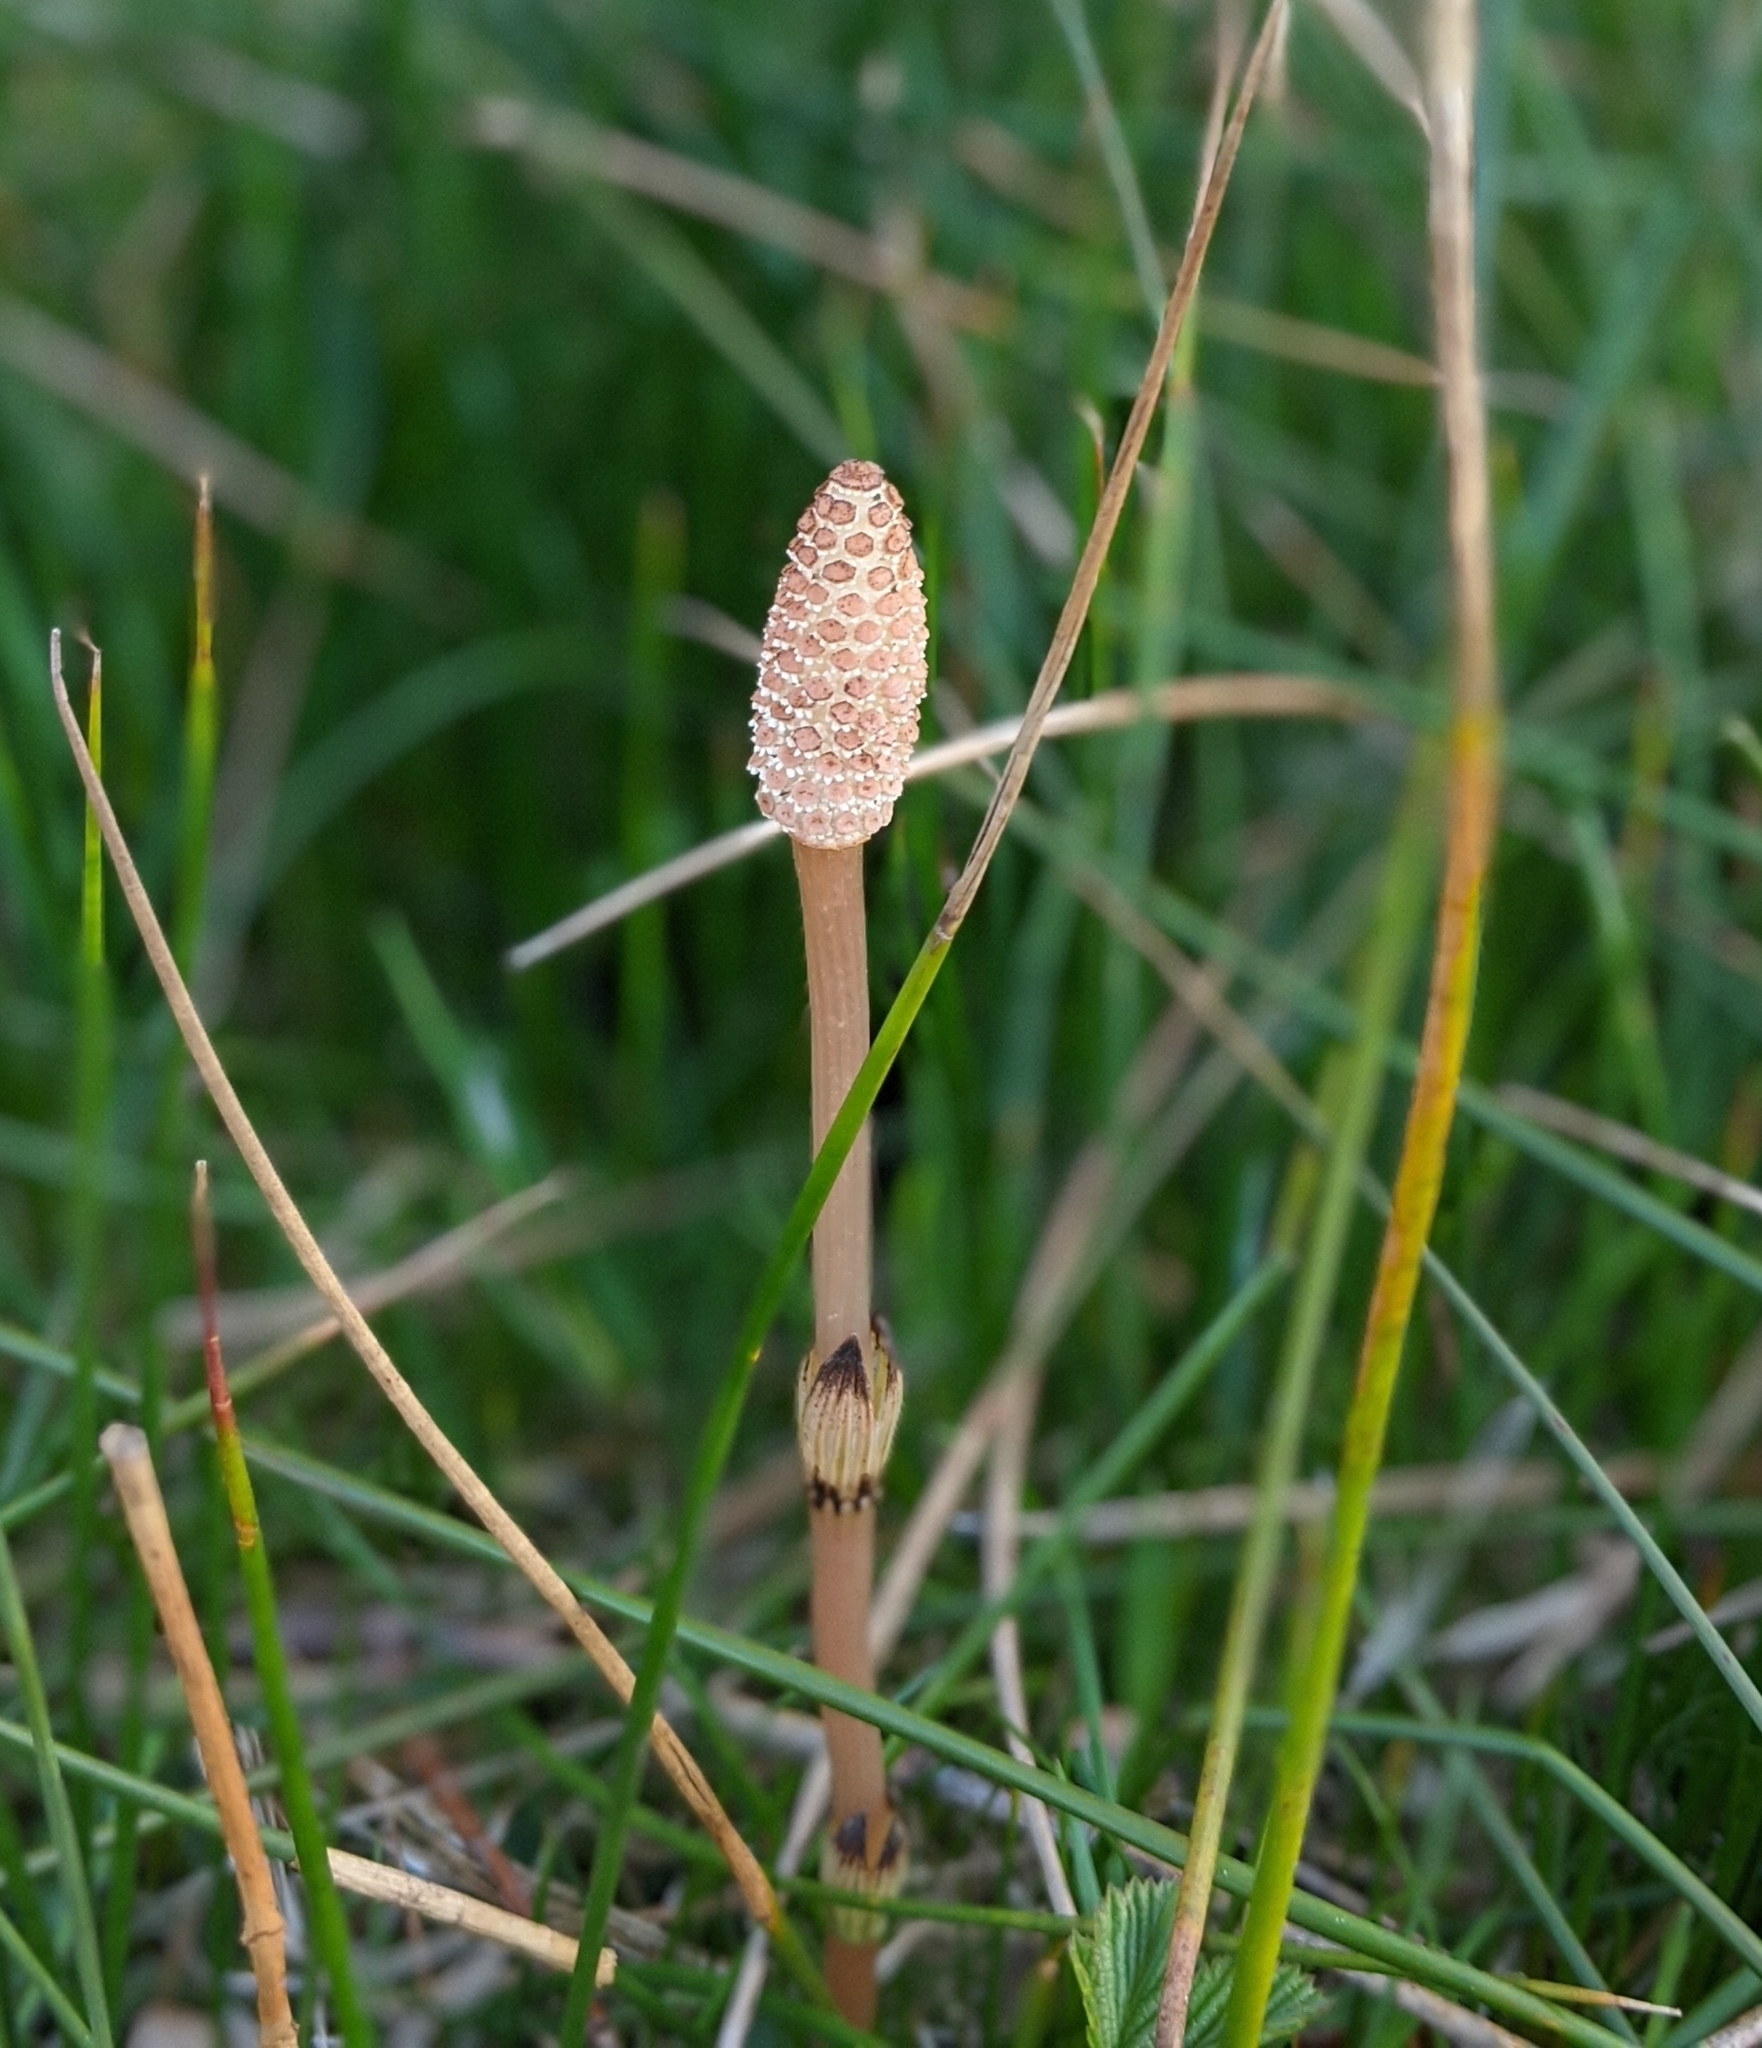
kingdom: Plantae
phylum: Tracheophyta
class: Polypodiopsida
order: Equisetales
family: Equisetaceae
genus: Equisetum
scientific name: Equisetum arvense
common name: Field horsetail
